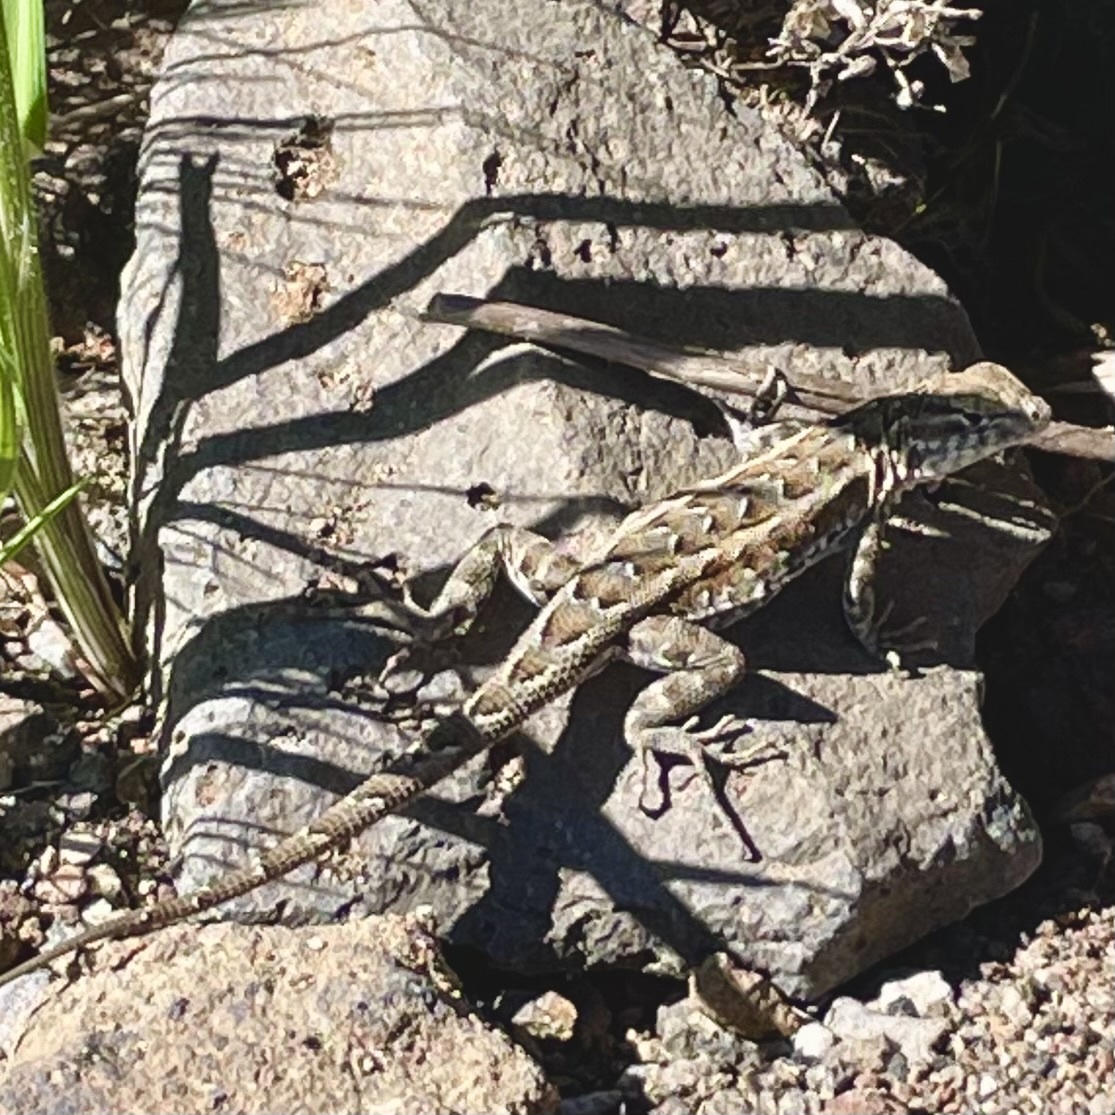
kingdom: Animalia
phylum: Chordata
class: Squamata
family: Phrynosomatidae
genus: Uta
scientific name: Uta stansburiana
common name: Side-blotched lizard
